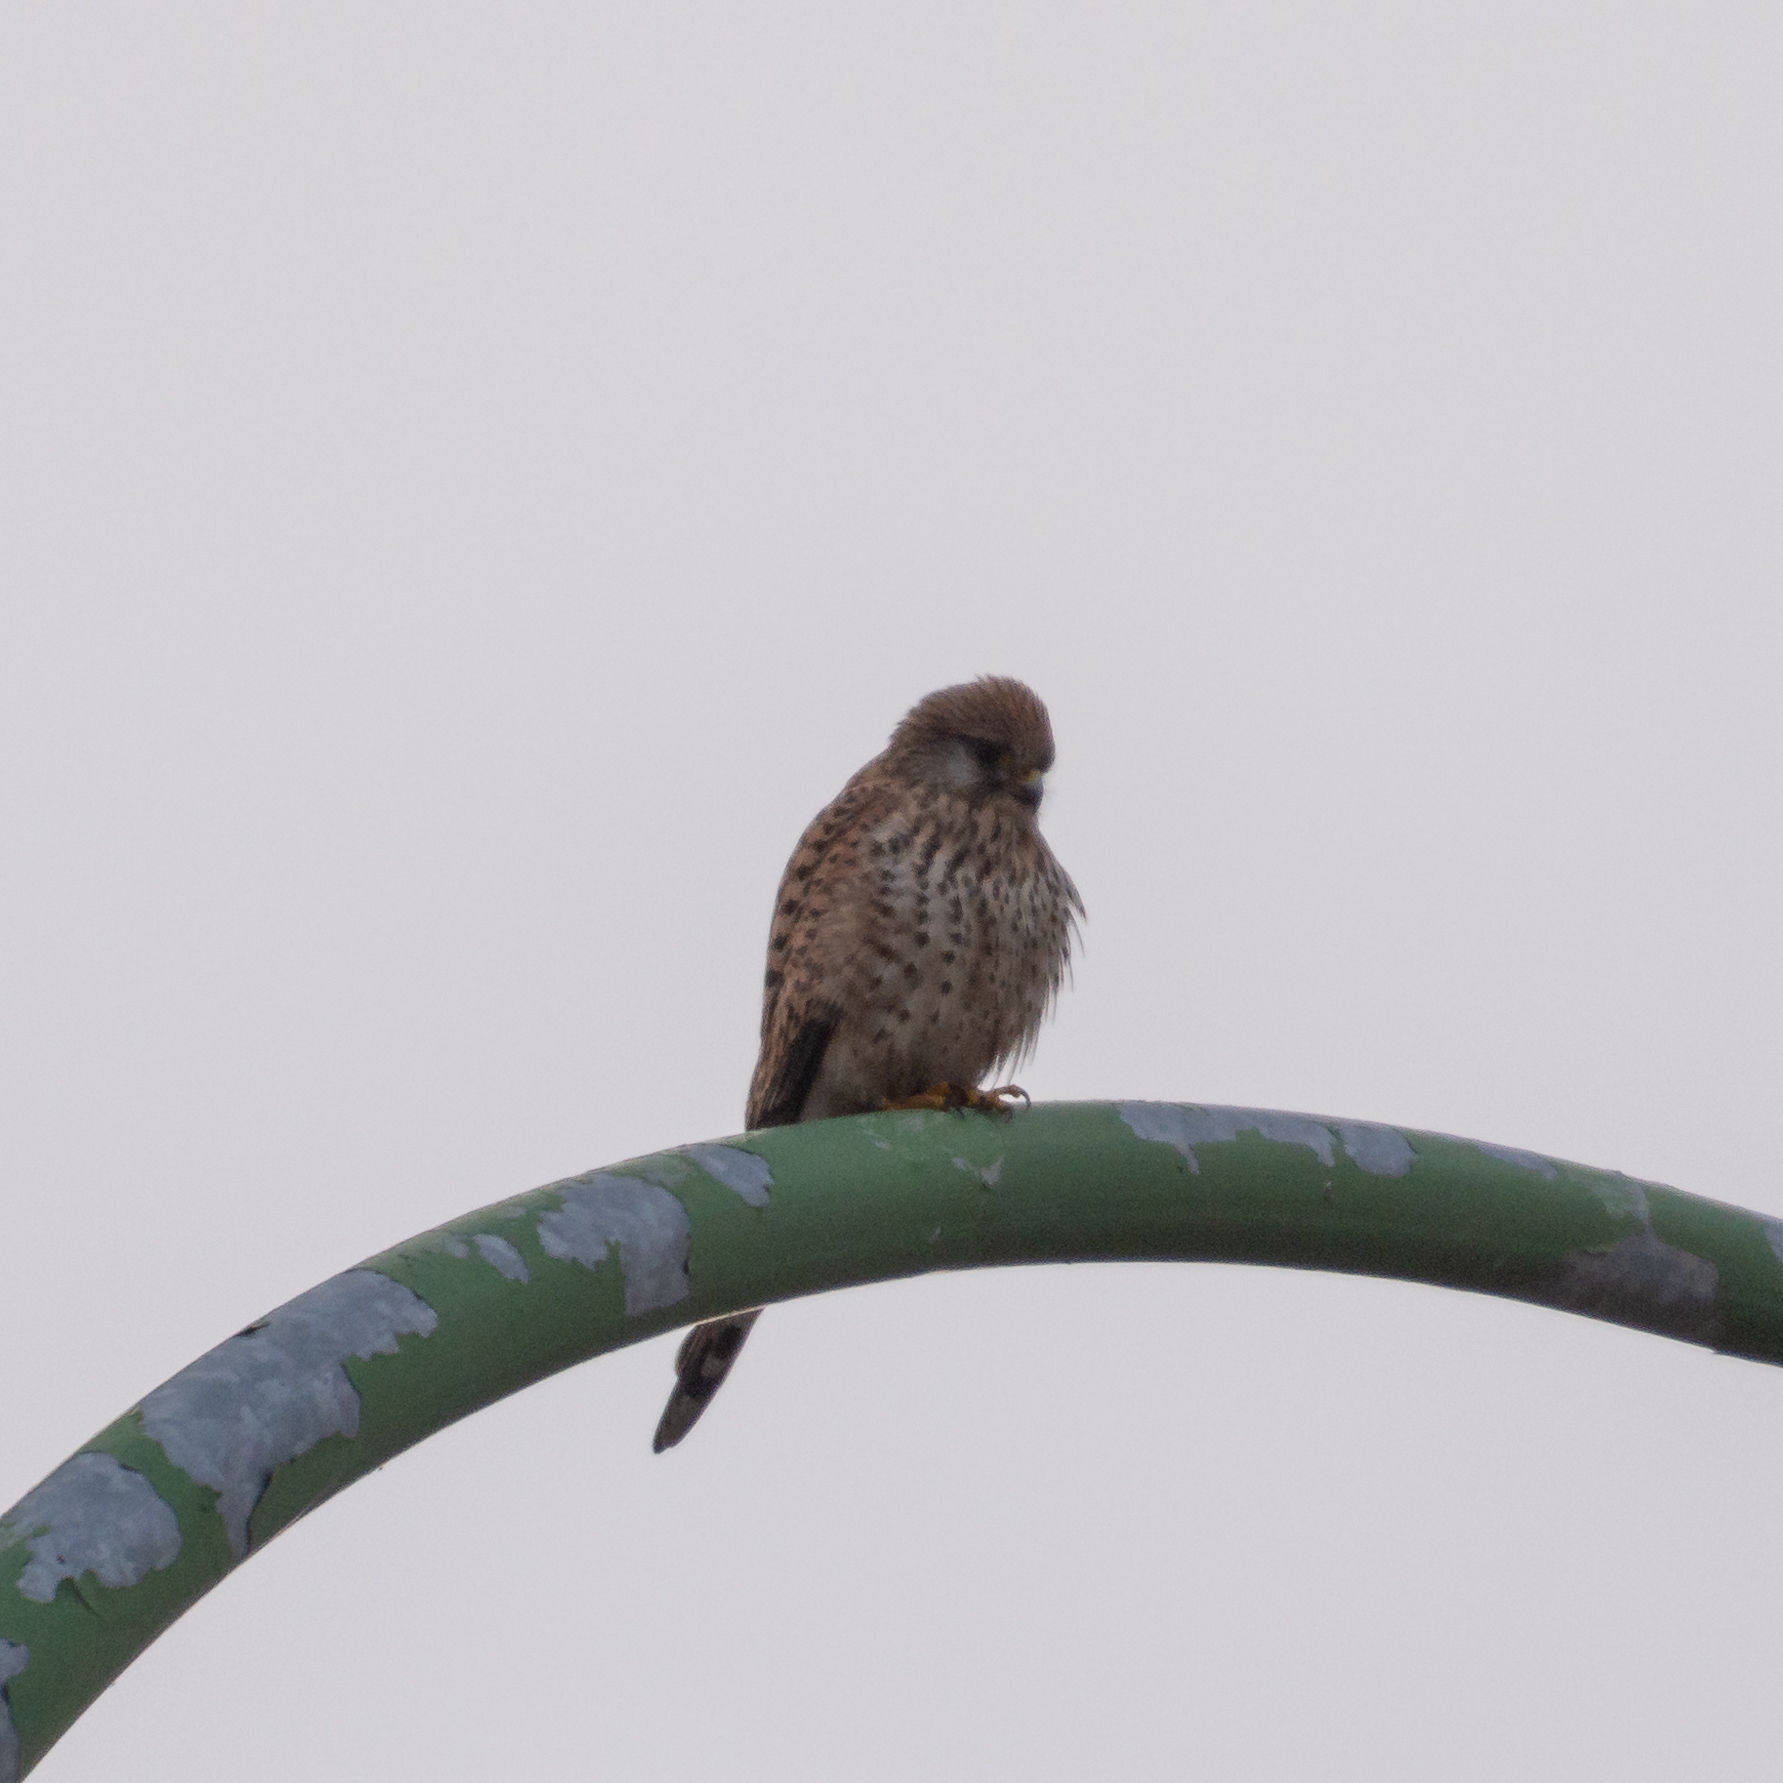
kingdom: Animalia
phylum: Chordata
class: Aves
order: Falconiformes
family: Falconidae
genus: Falco
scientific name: Falco tinnunculus
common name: Common kestrel
